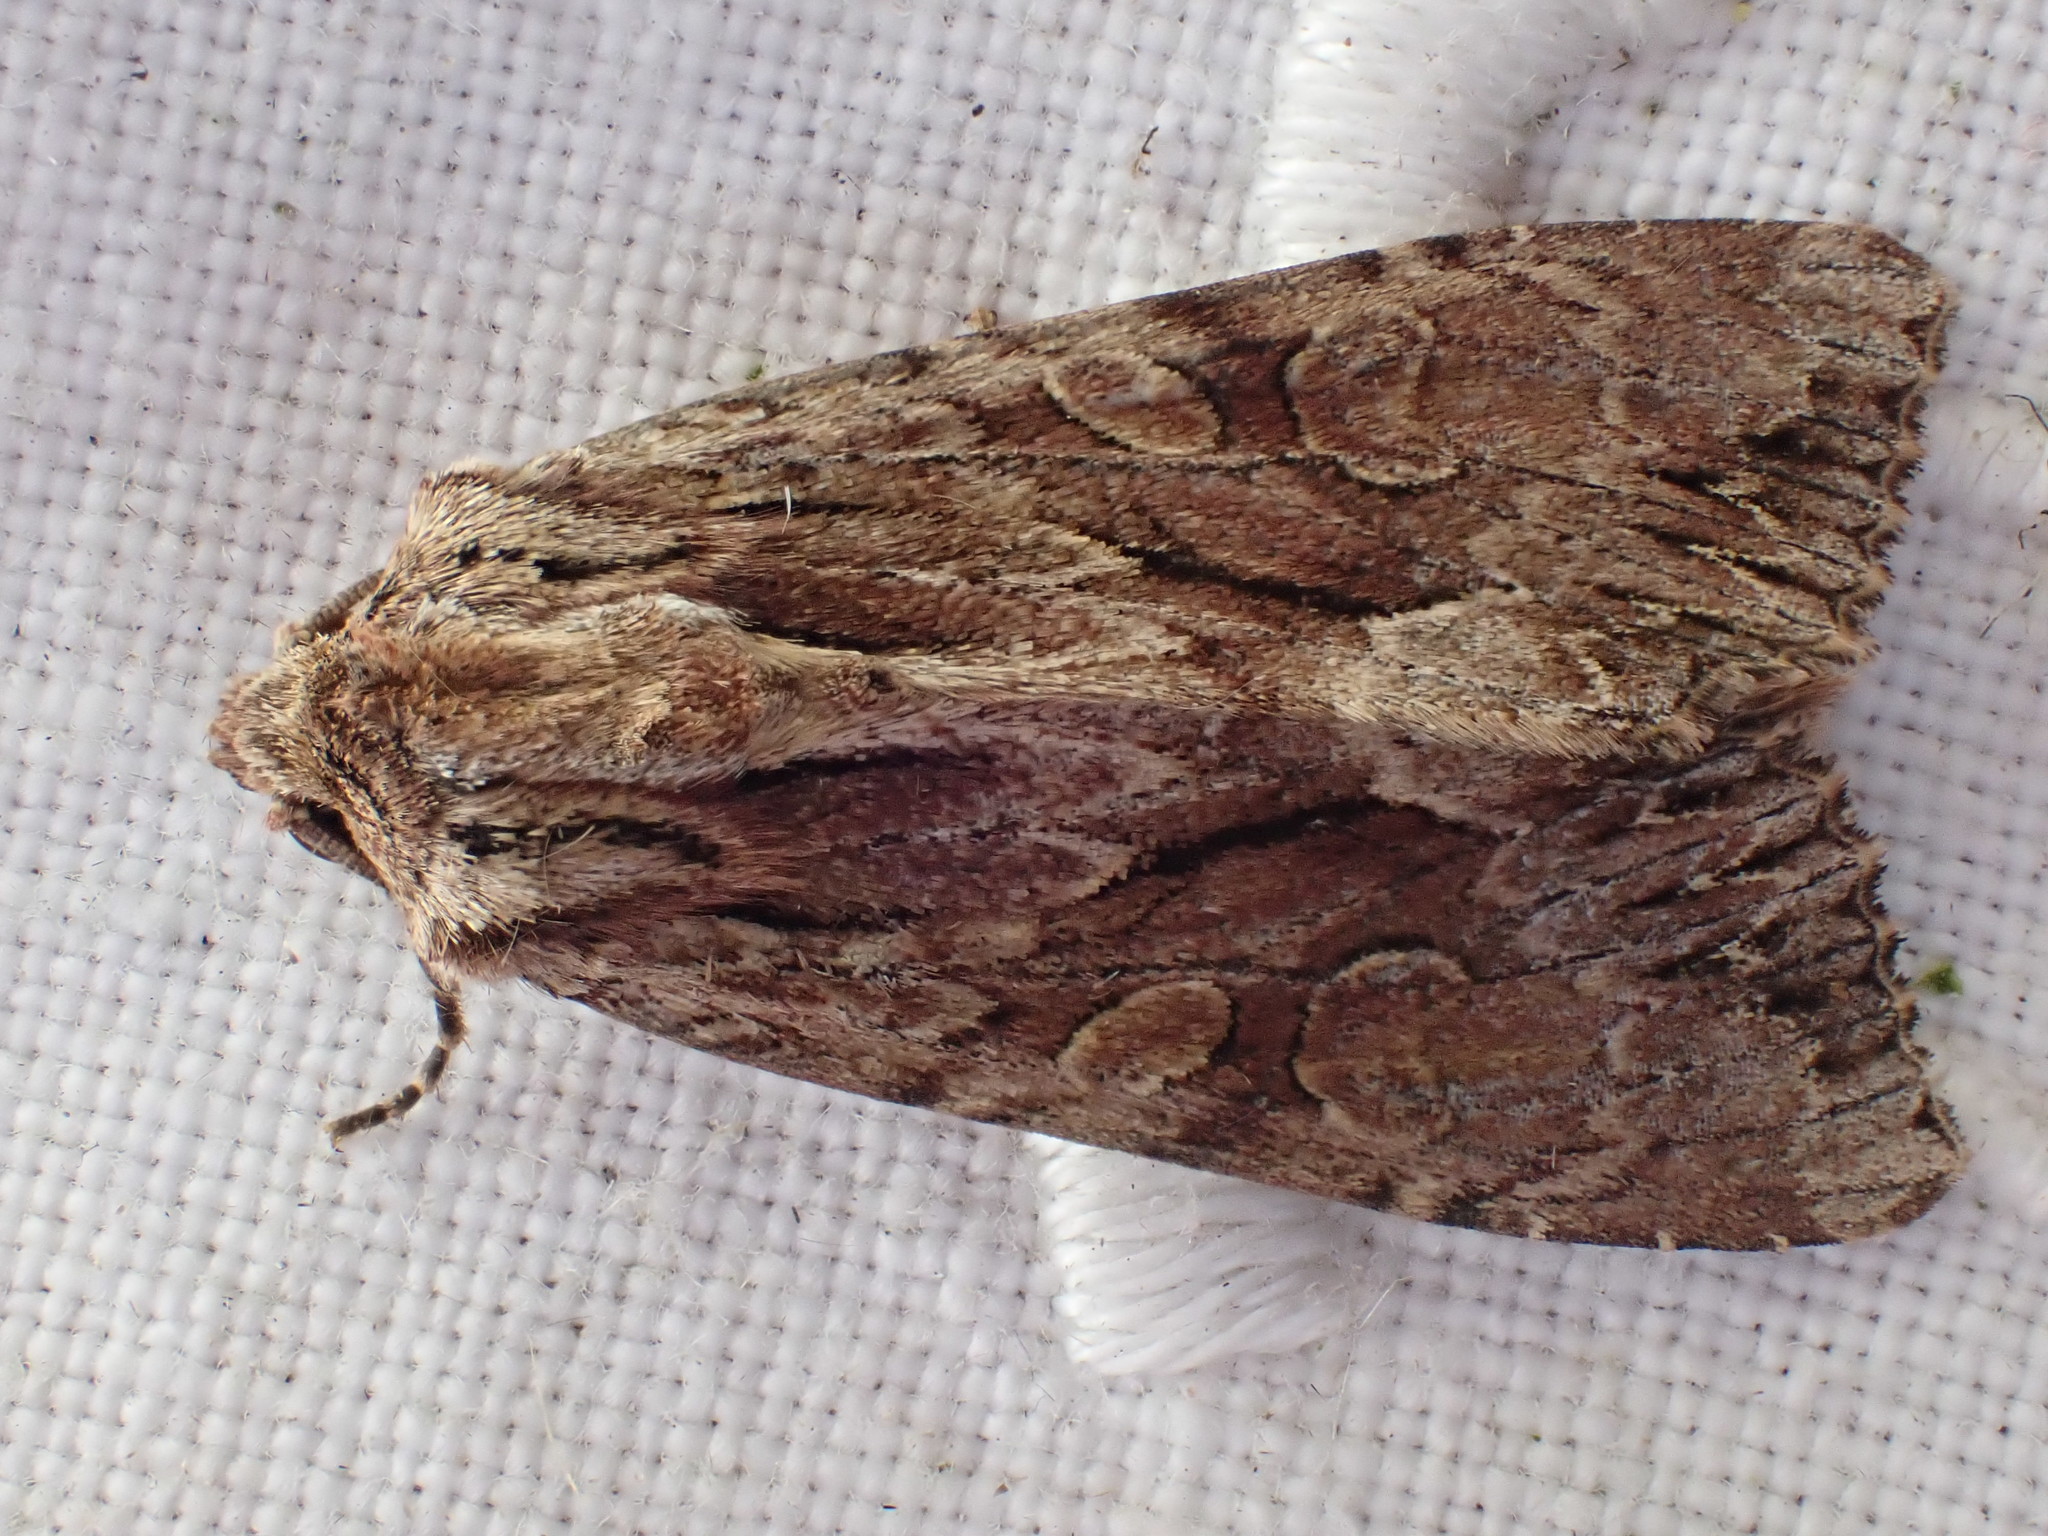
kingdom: Animalia
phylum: Arthropoda
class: Insecta
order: Lepidoptera
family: Noctuidae
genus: Apamea
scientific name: Apamea monoglypha
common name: Dark arches
